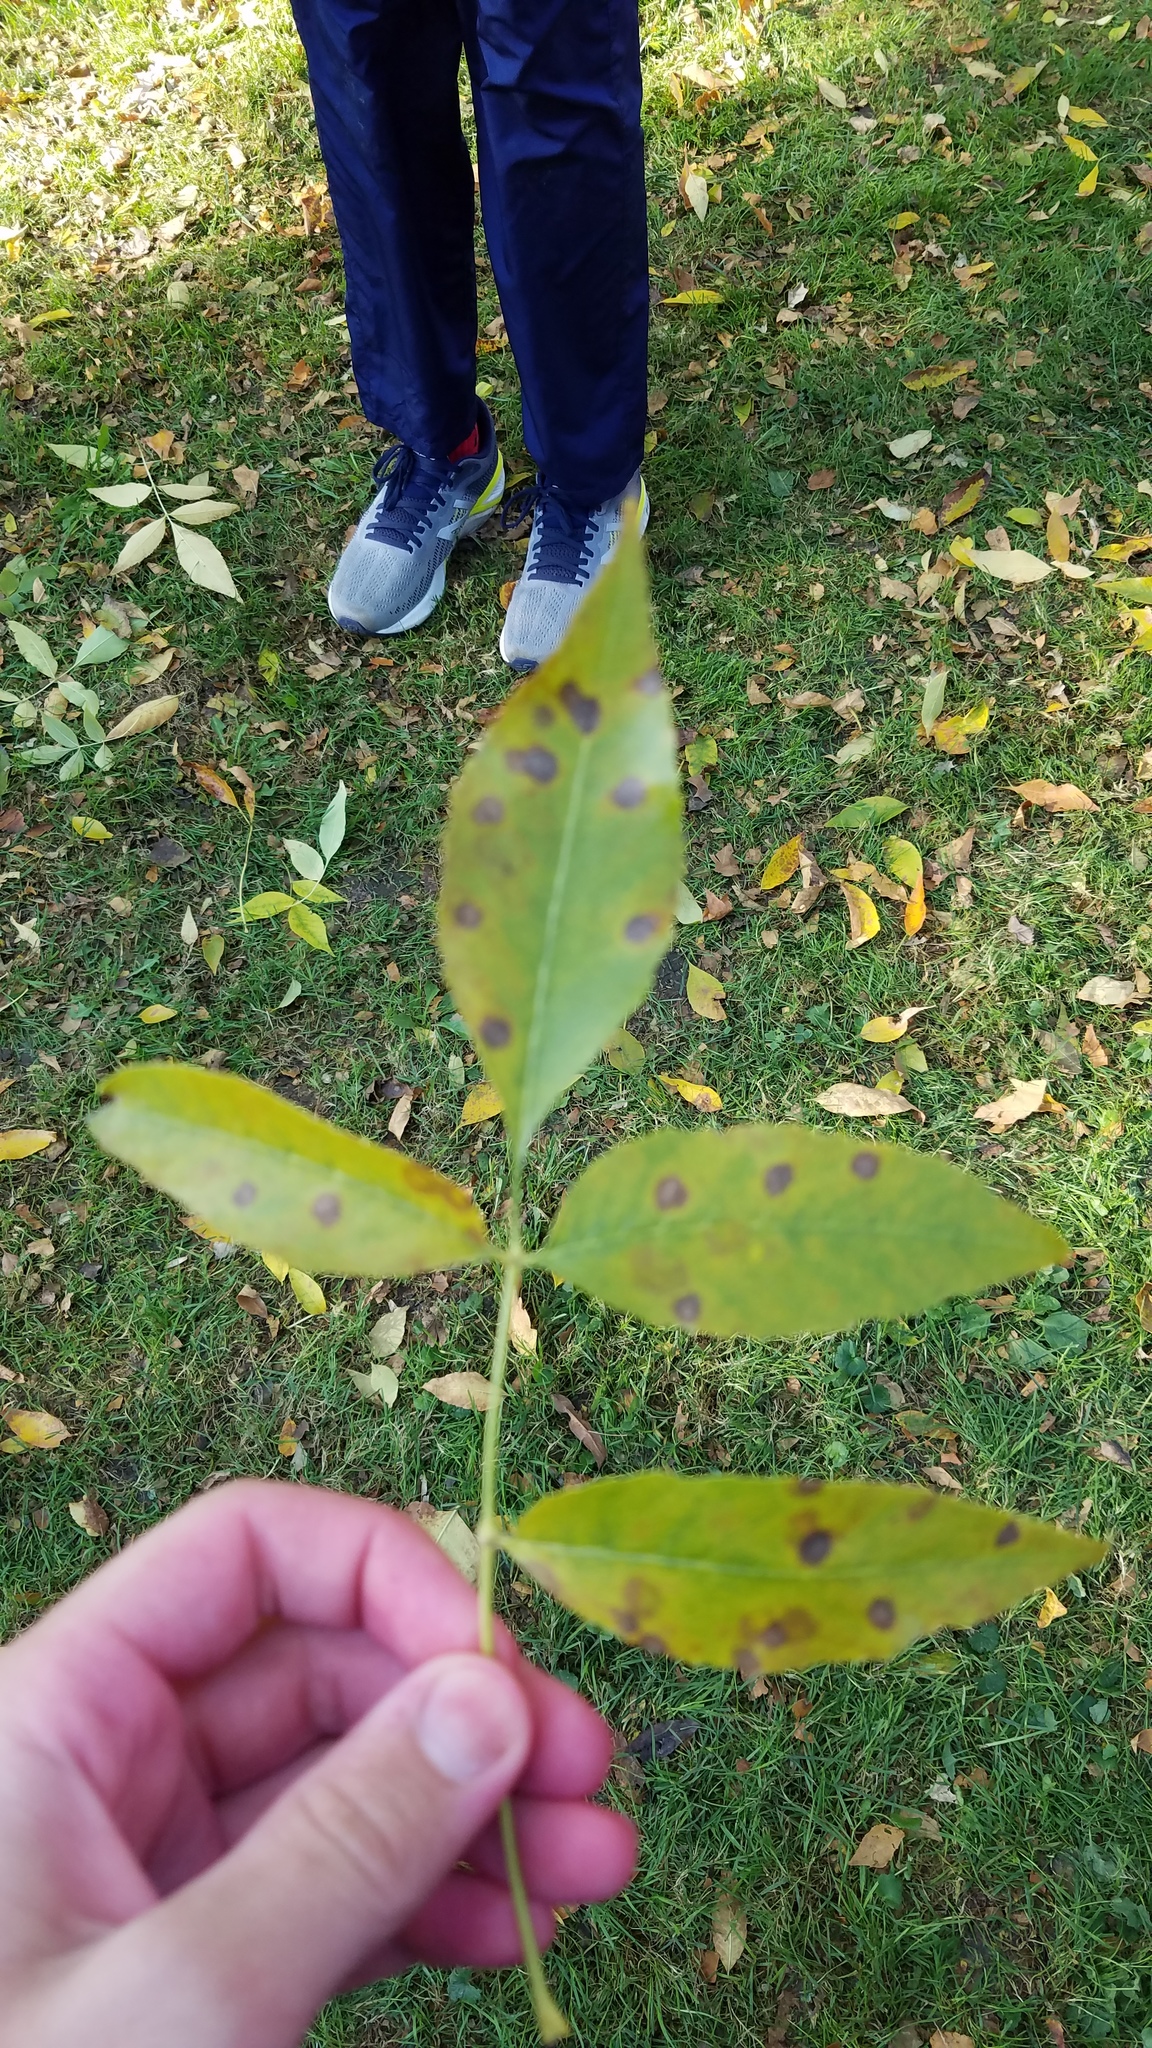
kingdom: Fungi
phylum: Ascomycota
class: Dothideomycetes
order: Mycosphaerellales
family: Mycosphaerellaceae
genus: Mycosphaerella
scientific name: Mycosphaerella fraxinicola
